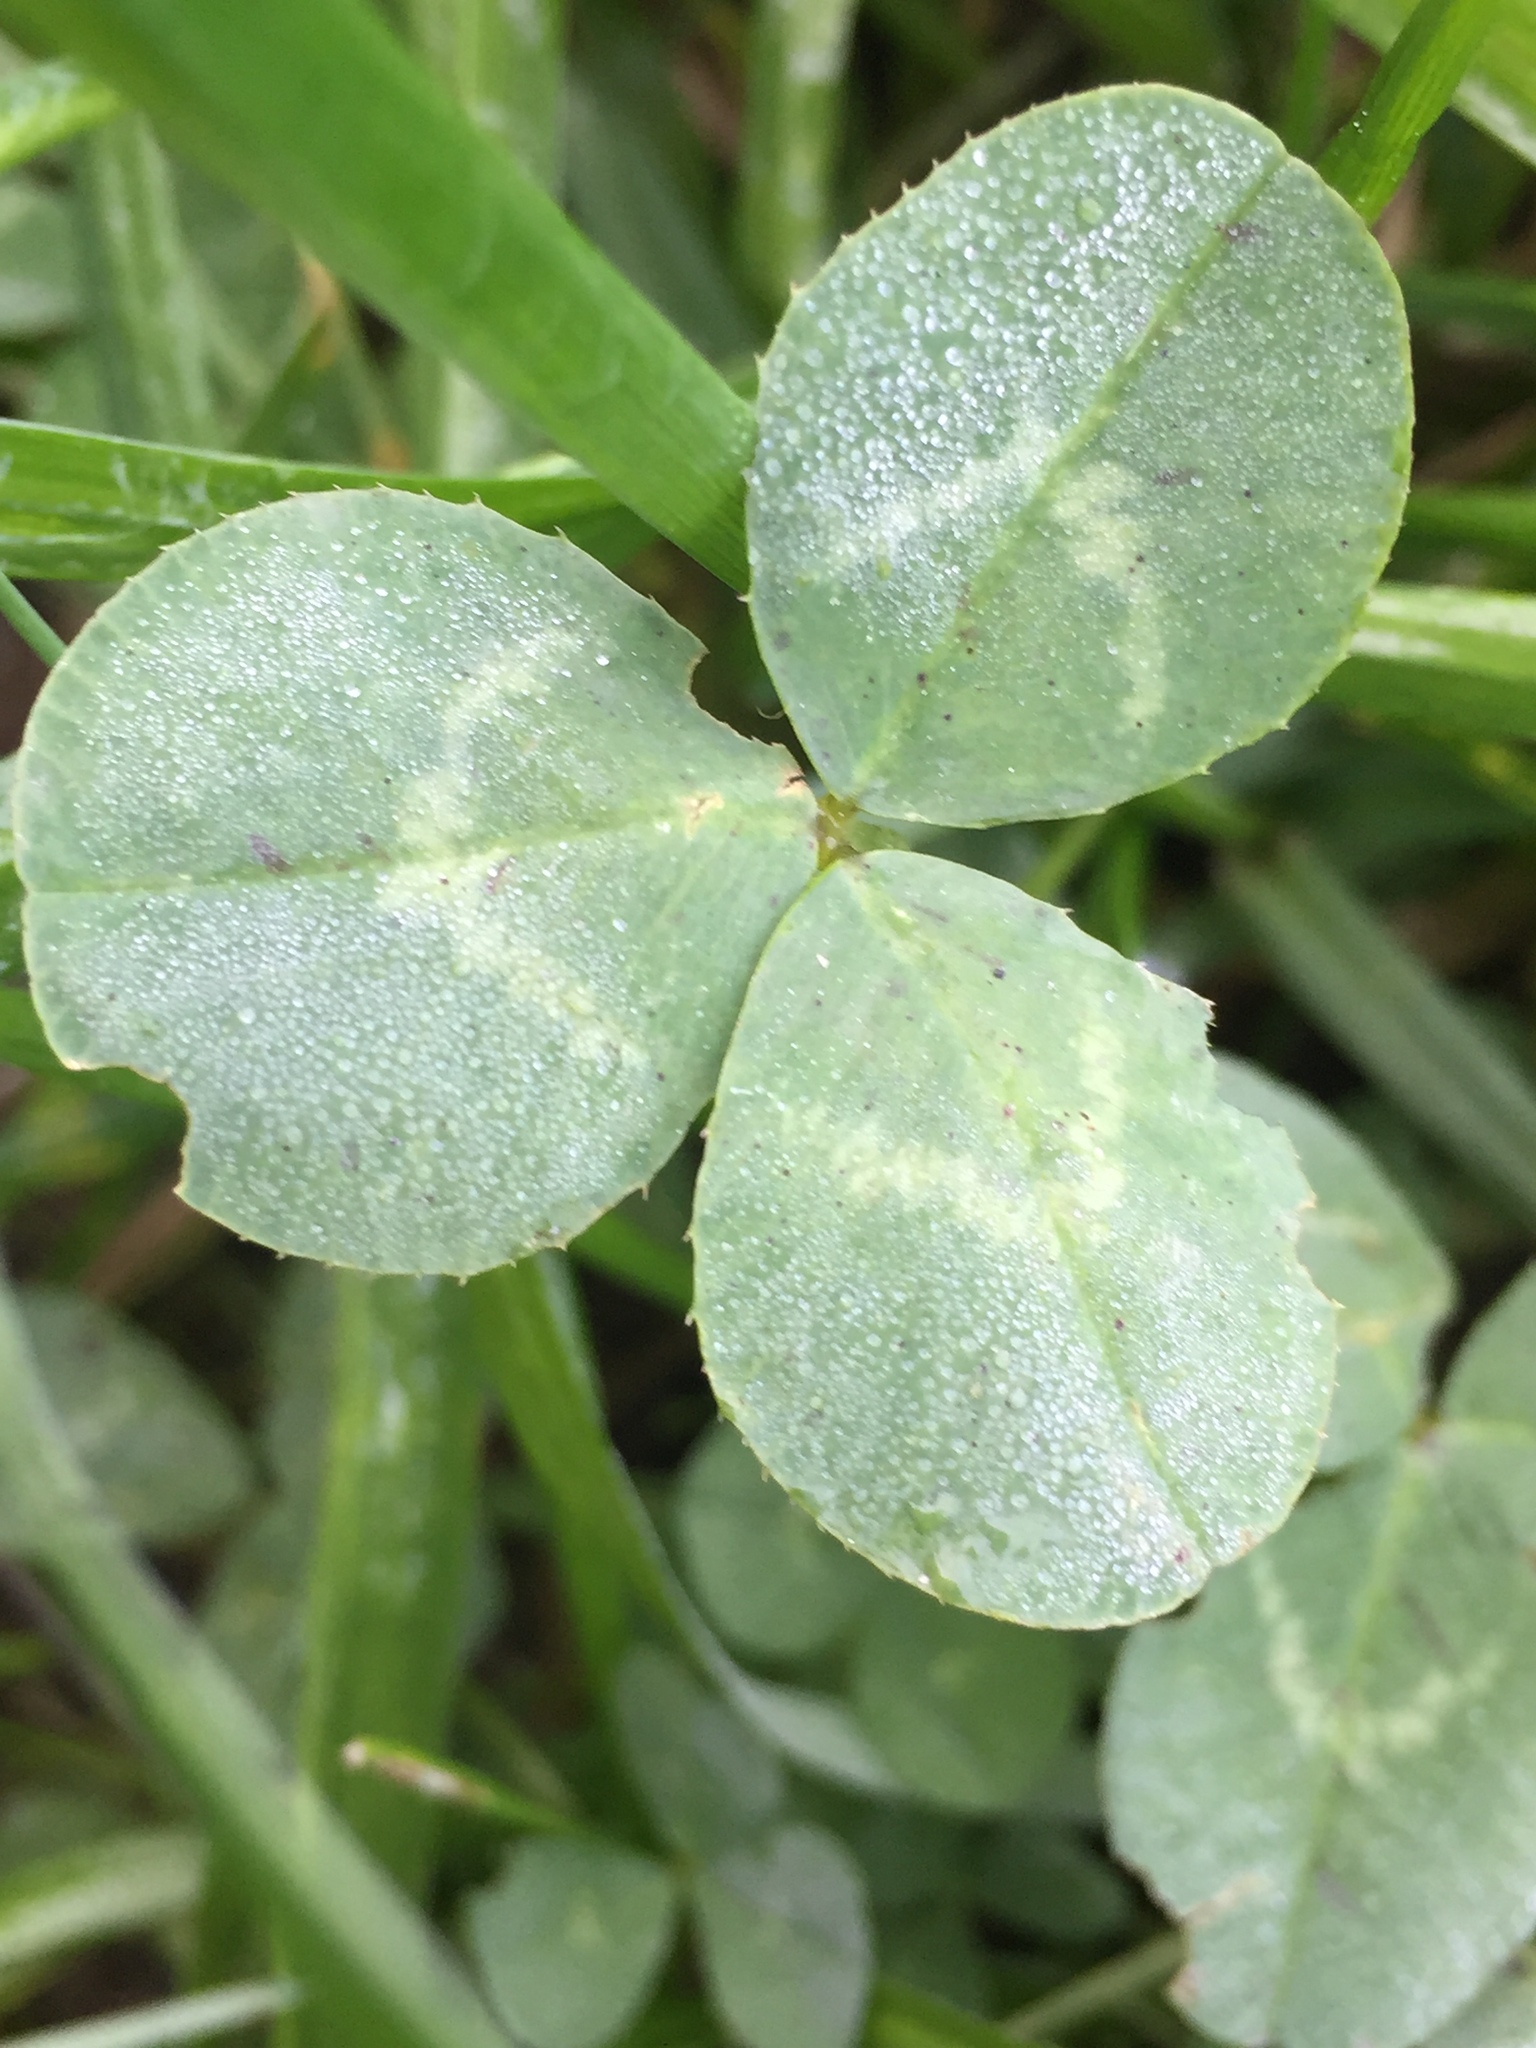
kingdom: Plantae
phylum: Tracheophyta
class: Magnoliopsida
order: Fabales
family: Fabaceae
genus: Trifolium
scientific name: Trifolium repens
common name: White clover
